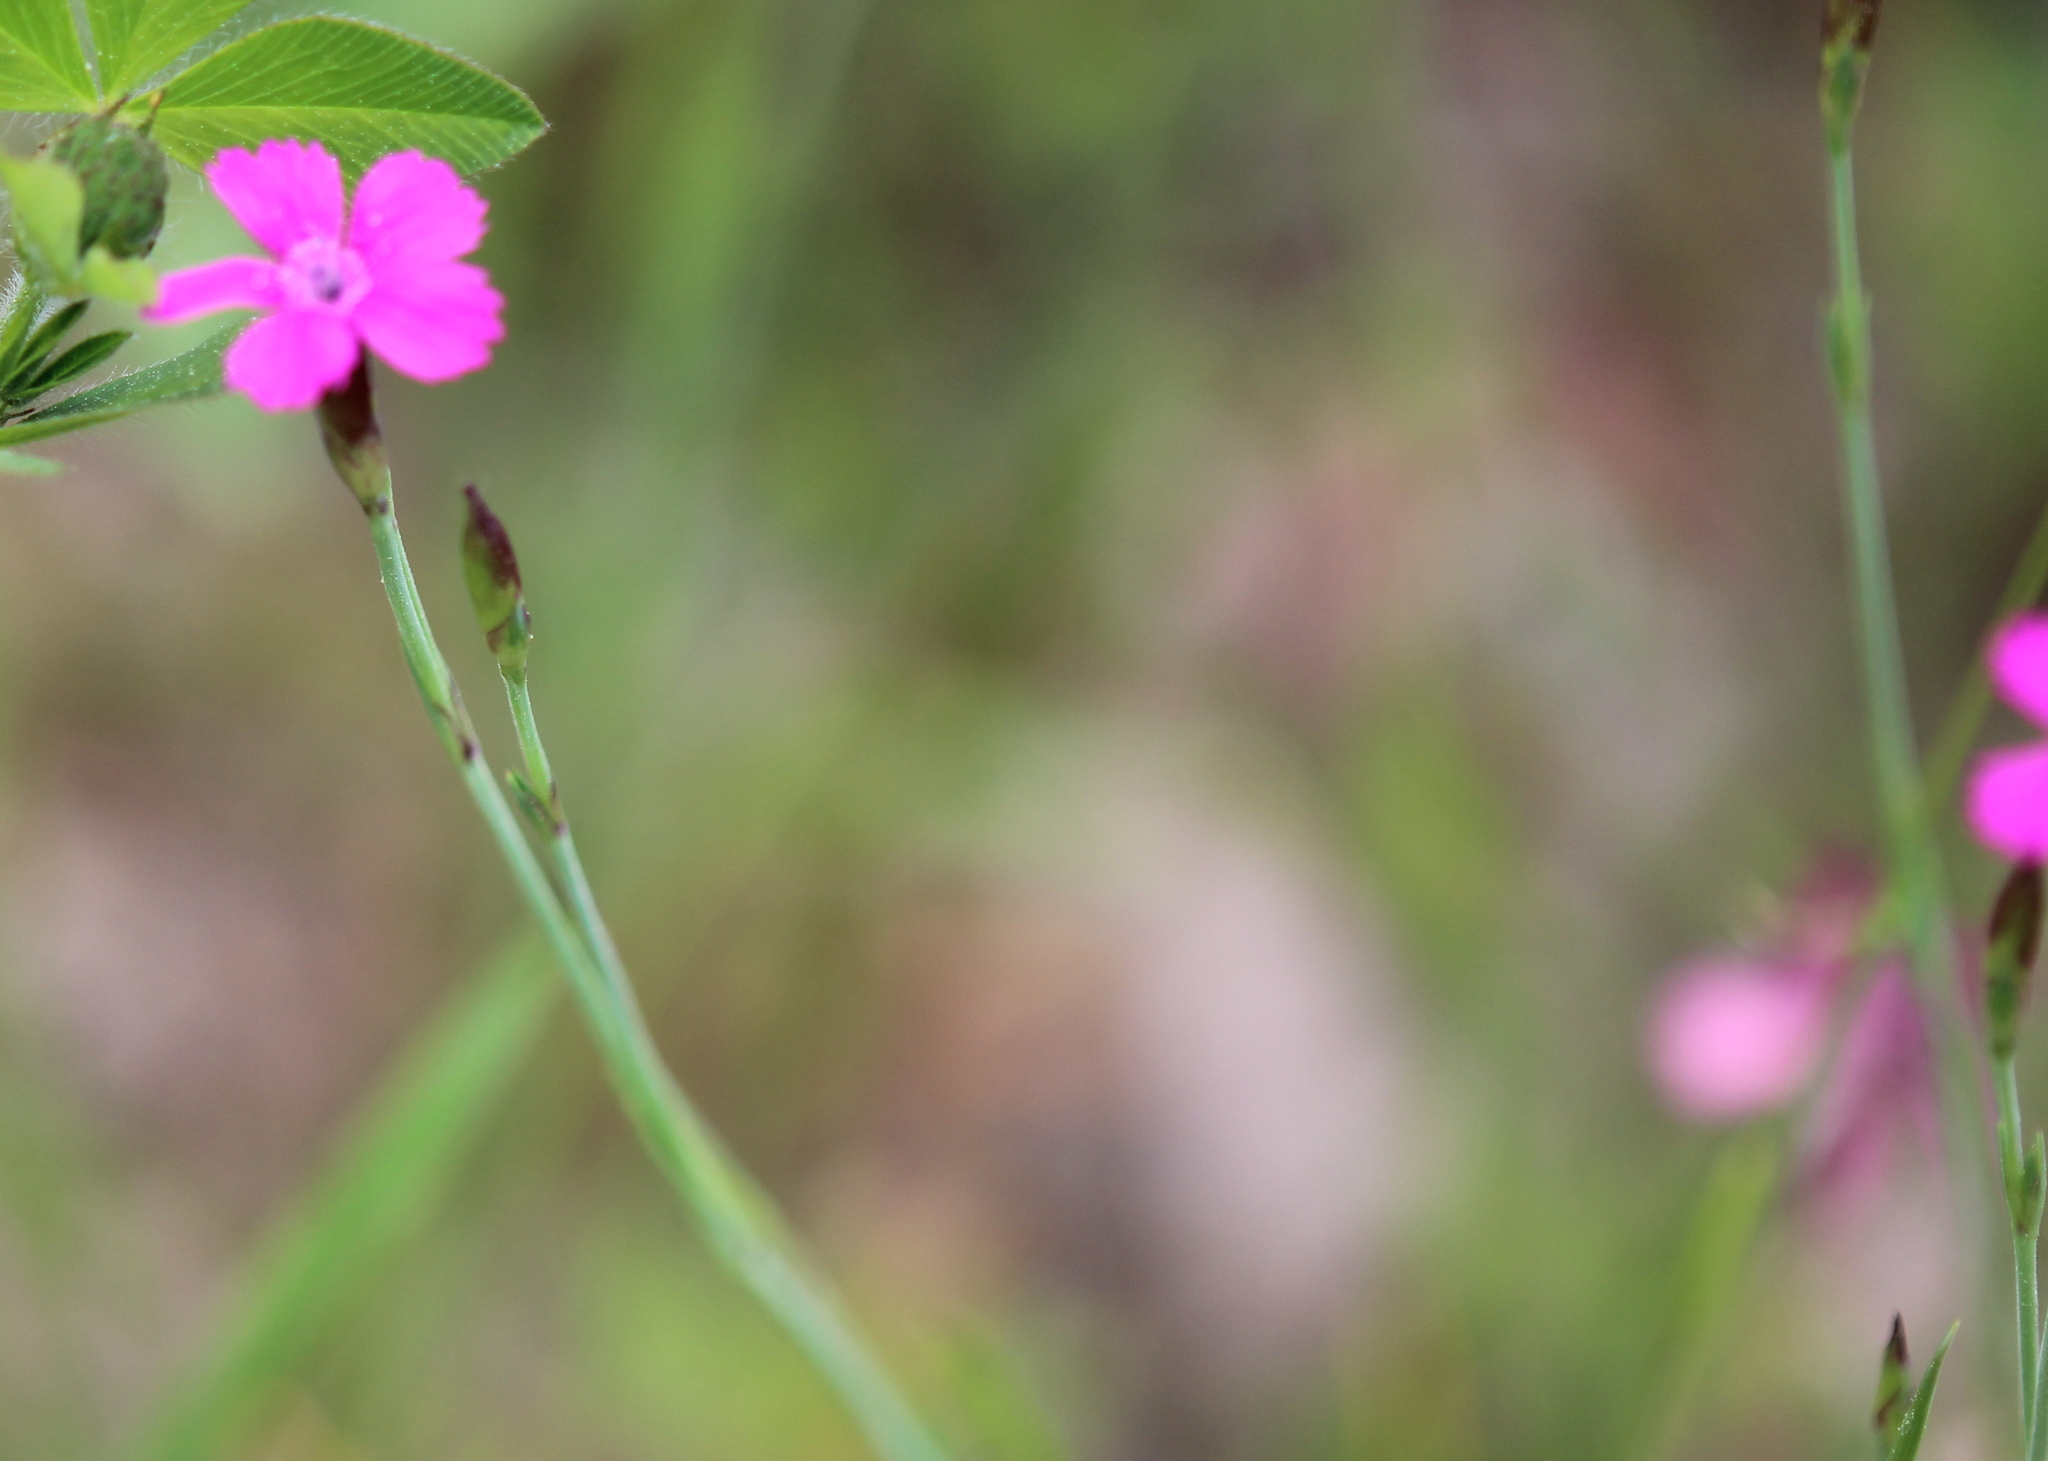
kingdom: Plantae
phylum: Tracheophyta
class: Magnoliopsida
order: Caryophyllales
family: Caryophyllaceae
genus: Dianthus
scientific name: Dianthus deltoides
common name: Maiden pink
